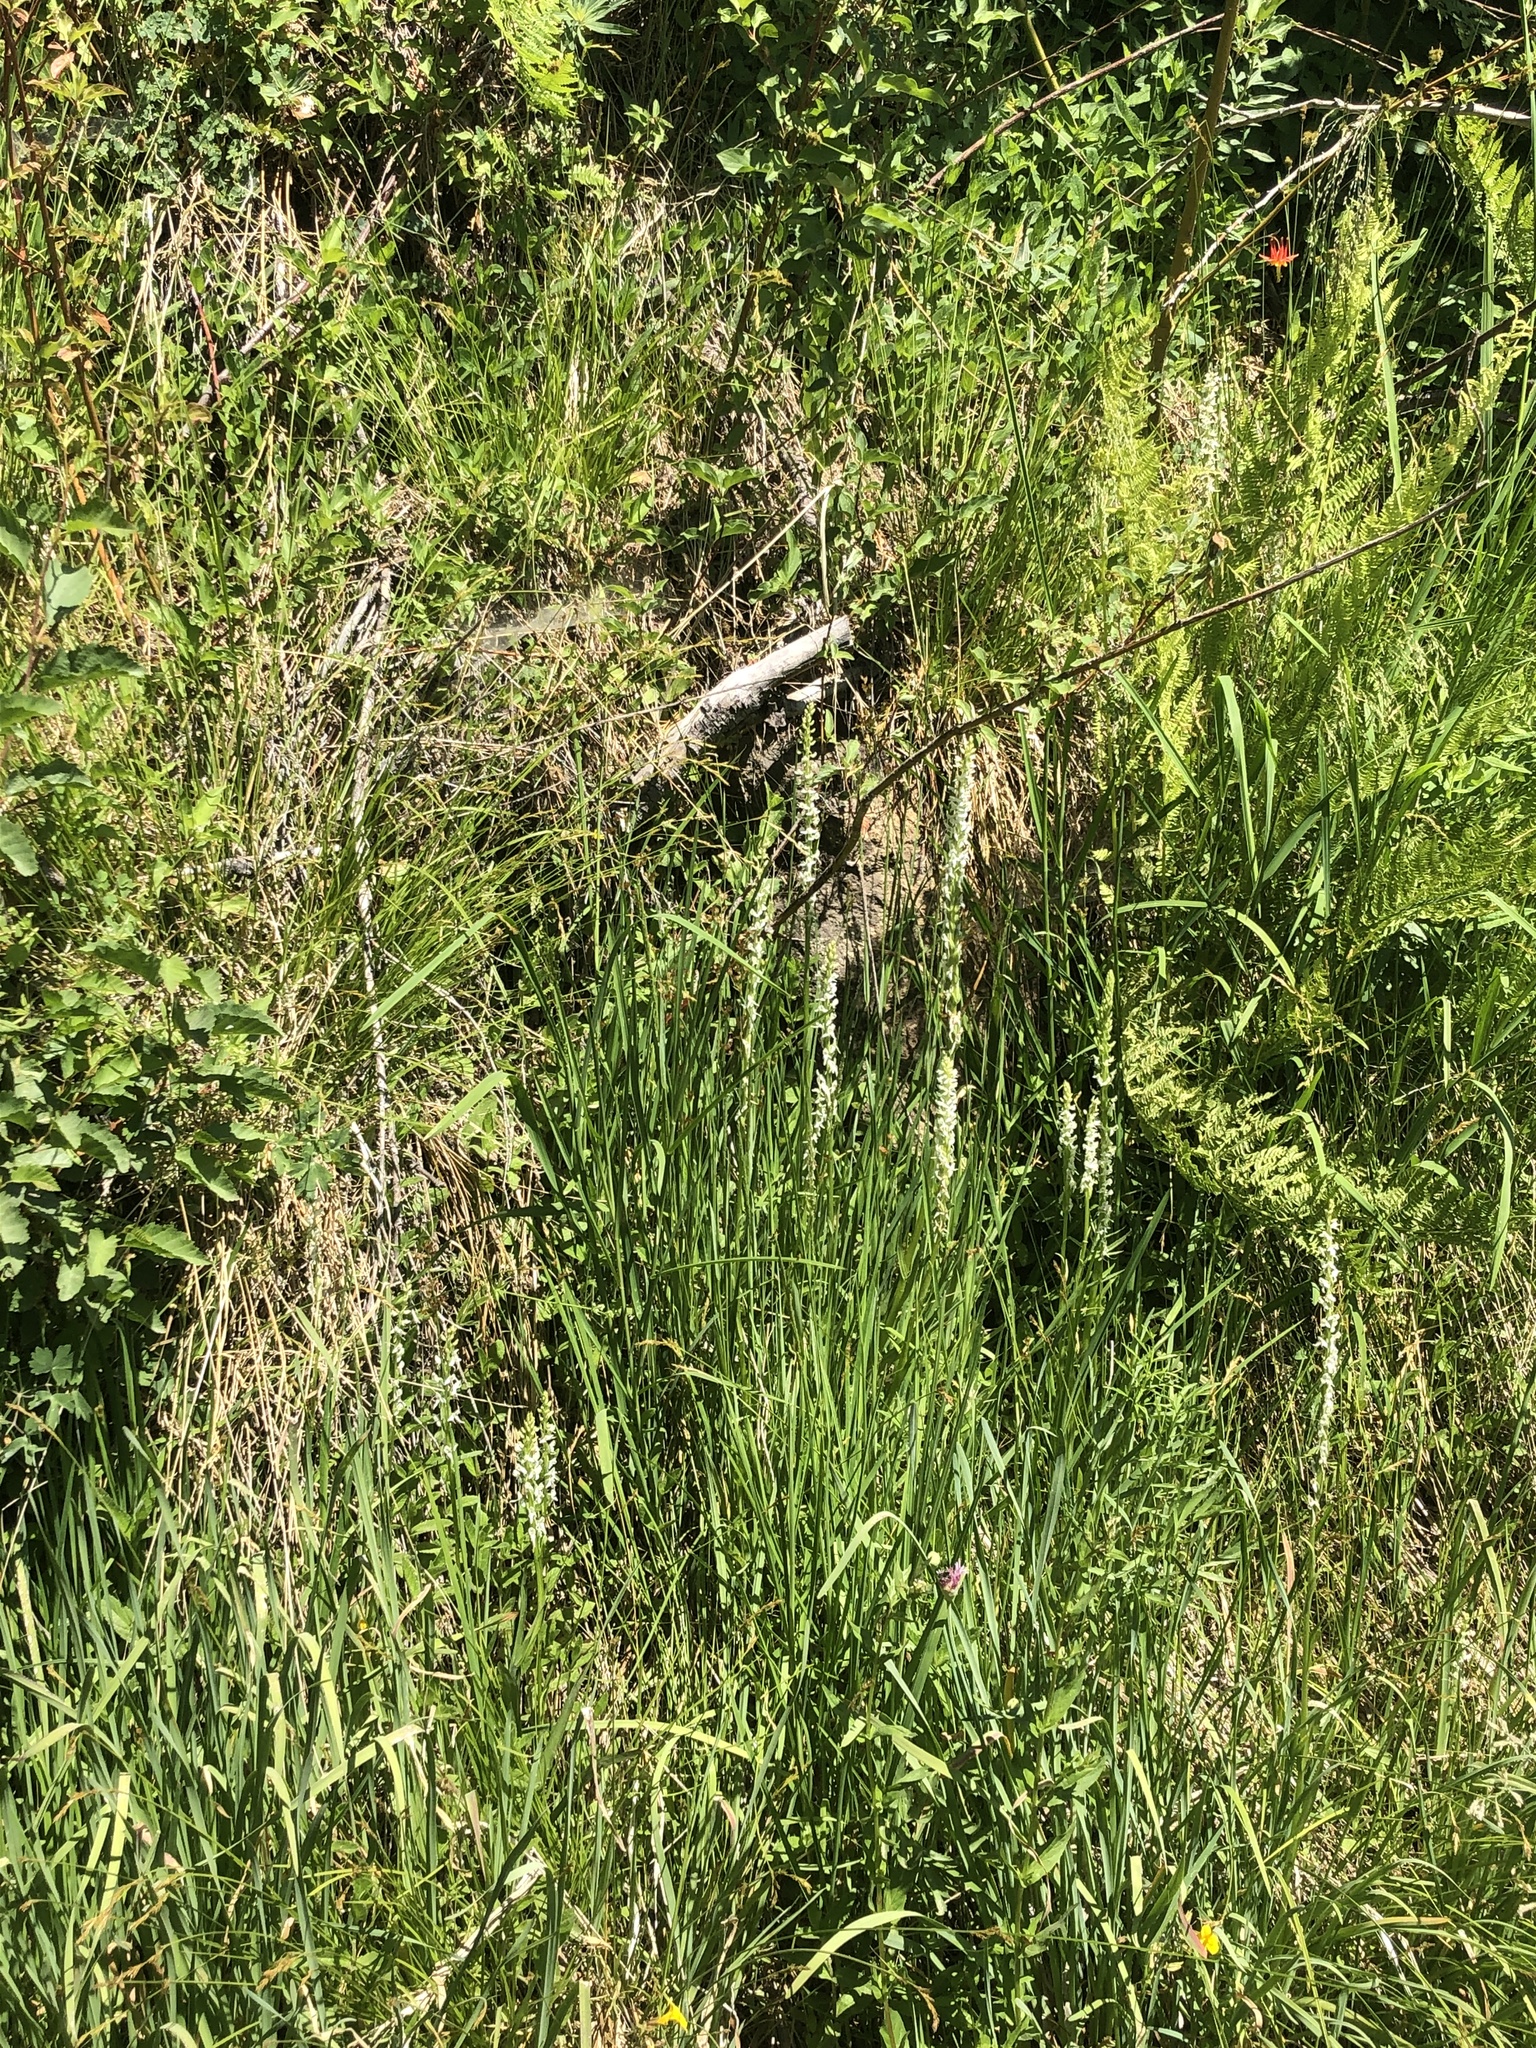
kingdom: Plantae
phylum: Tracheophyta
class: Liliopsida
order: Asparagales
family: Orchidaceae
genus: Platanthera
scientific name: Platanthera dilatata
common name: Bog candles
